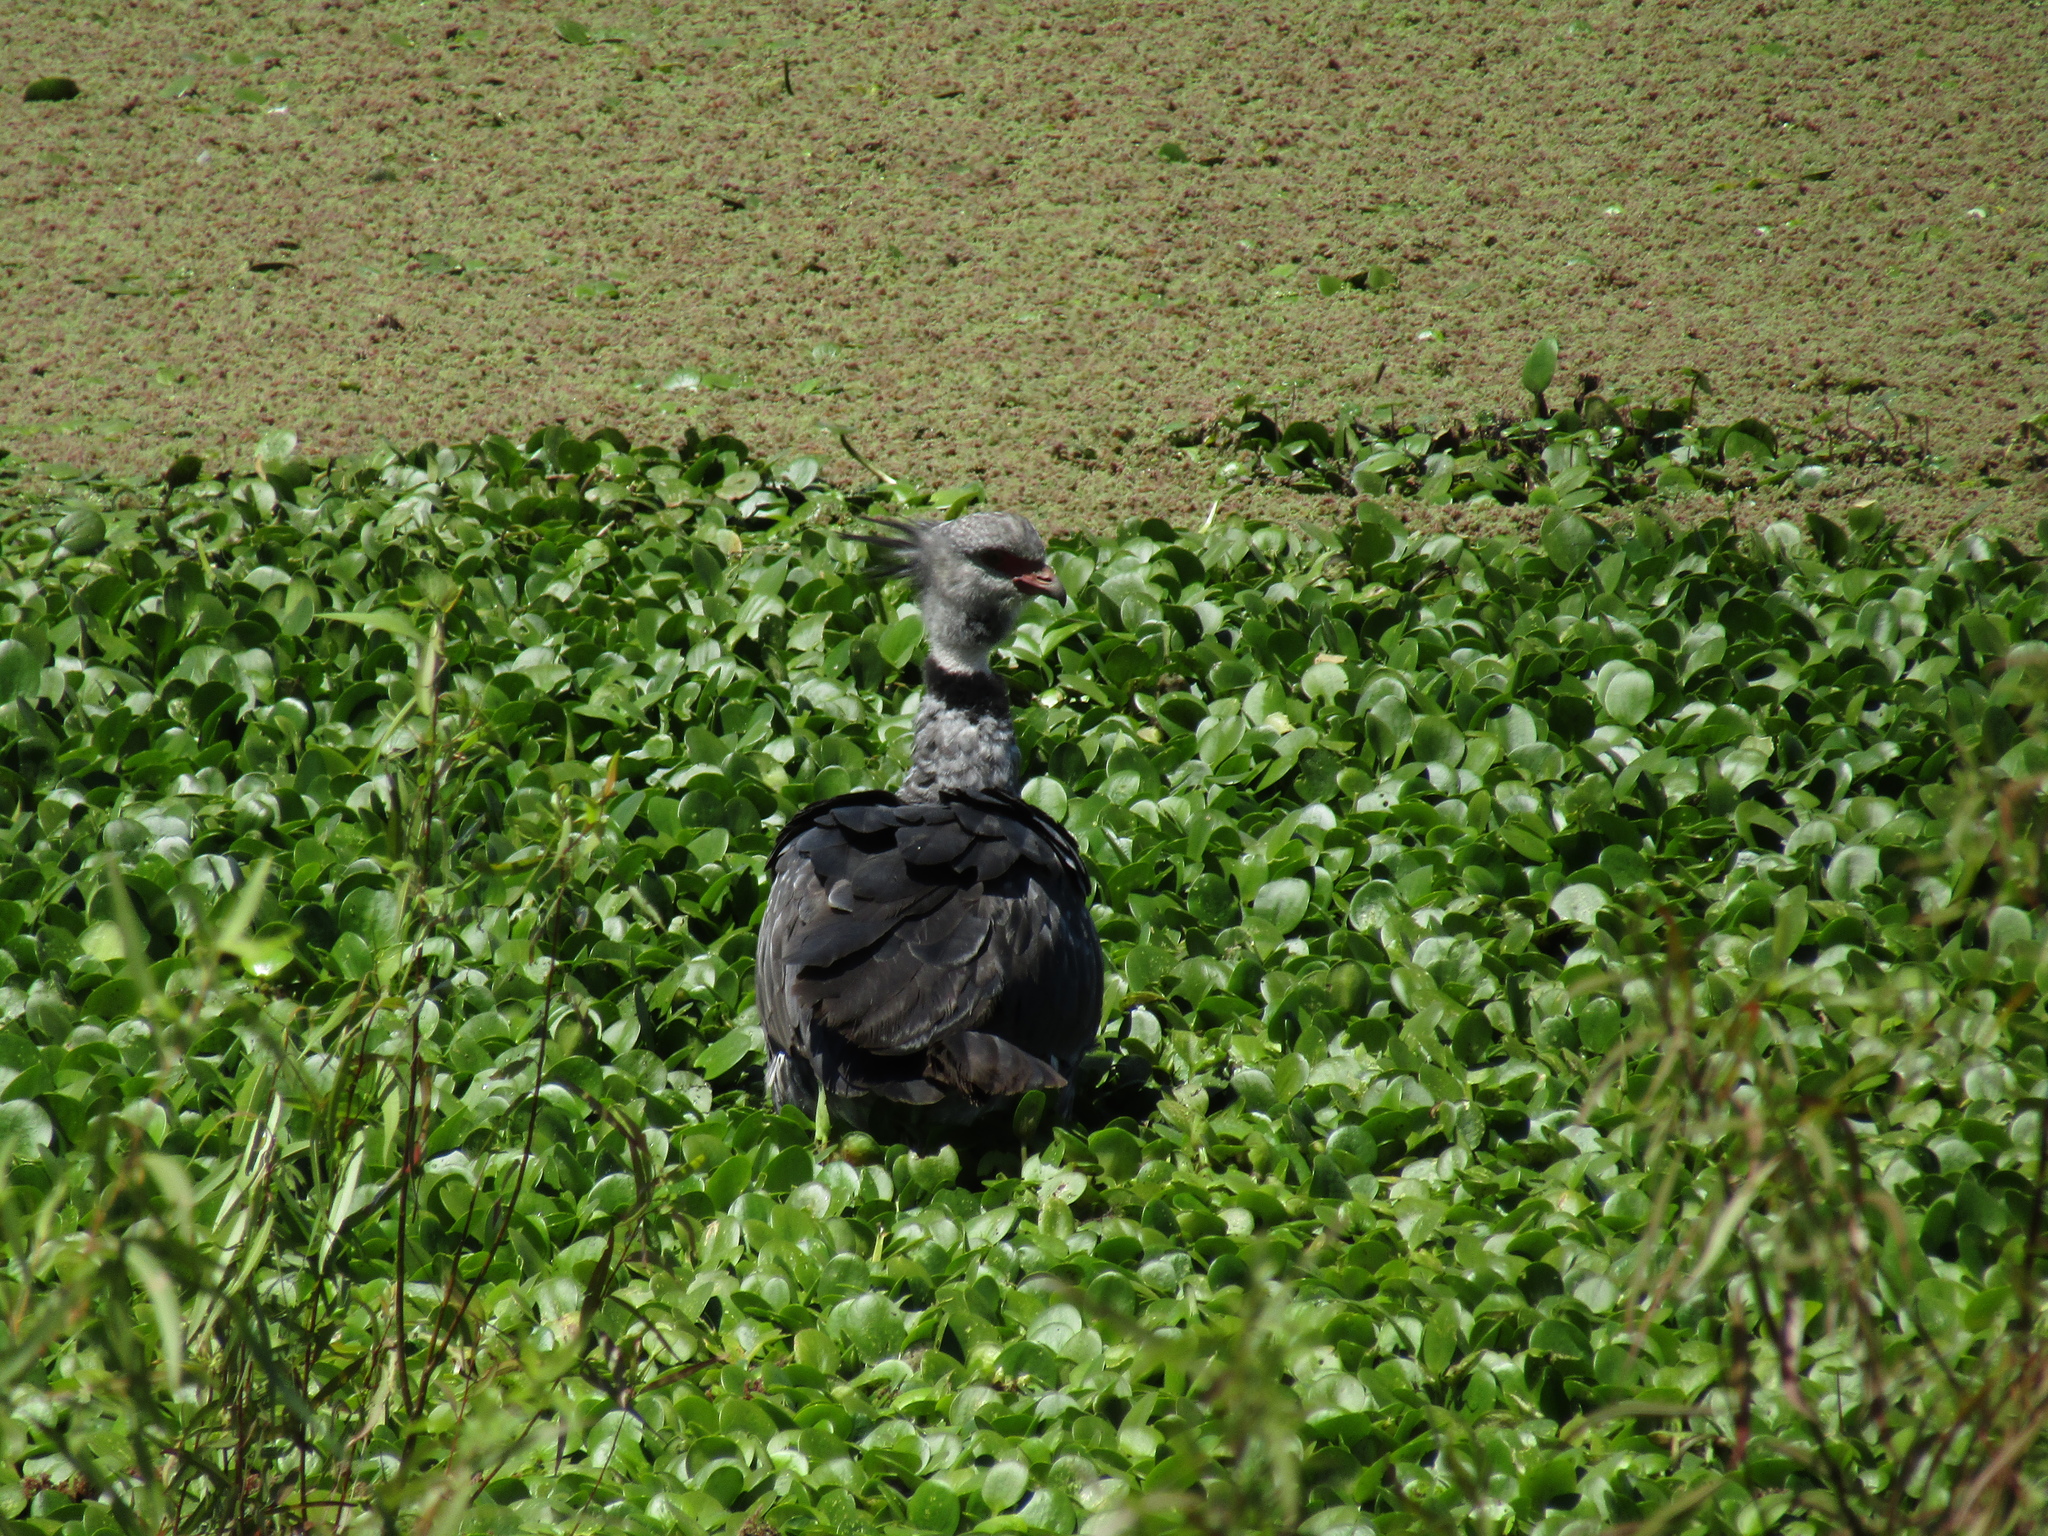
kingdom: Animalia
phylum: Chordata
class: Aves
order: Anseriformes
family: Anhimidae
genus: Chauna
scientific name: Chauna torquata
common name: Southern screamer
